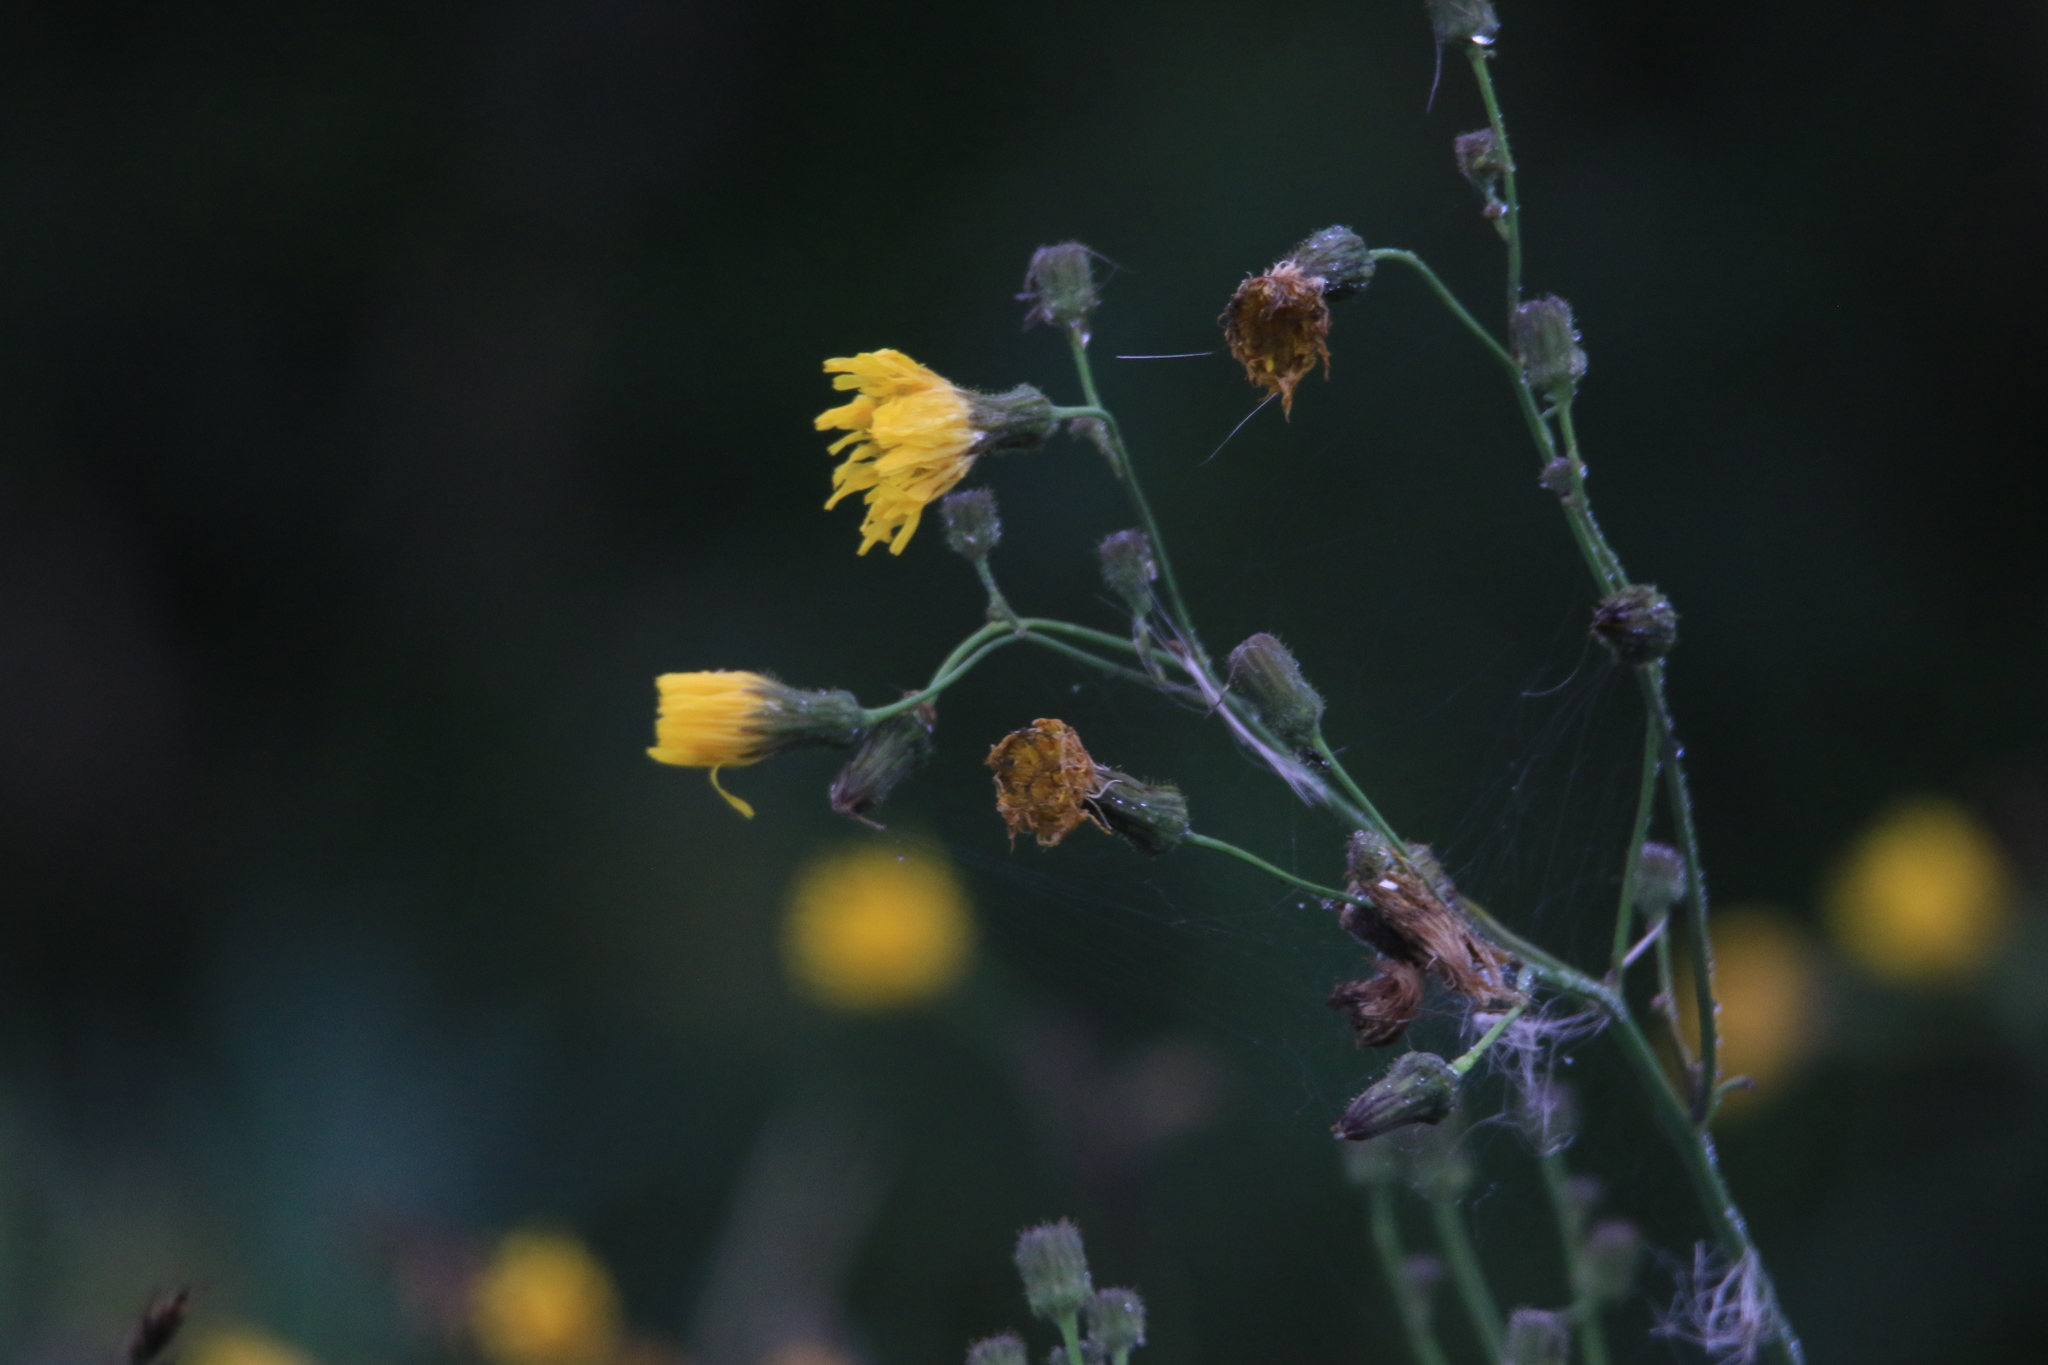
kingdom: Plantae
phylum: Tracheophyta
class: Magnoliopsida
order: Asterales
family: Asteraceae
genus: Sonchus
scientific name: Sonchus arvensis
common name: Perennial sow-thistle
